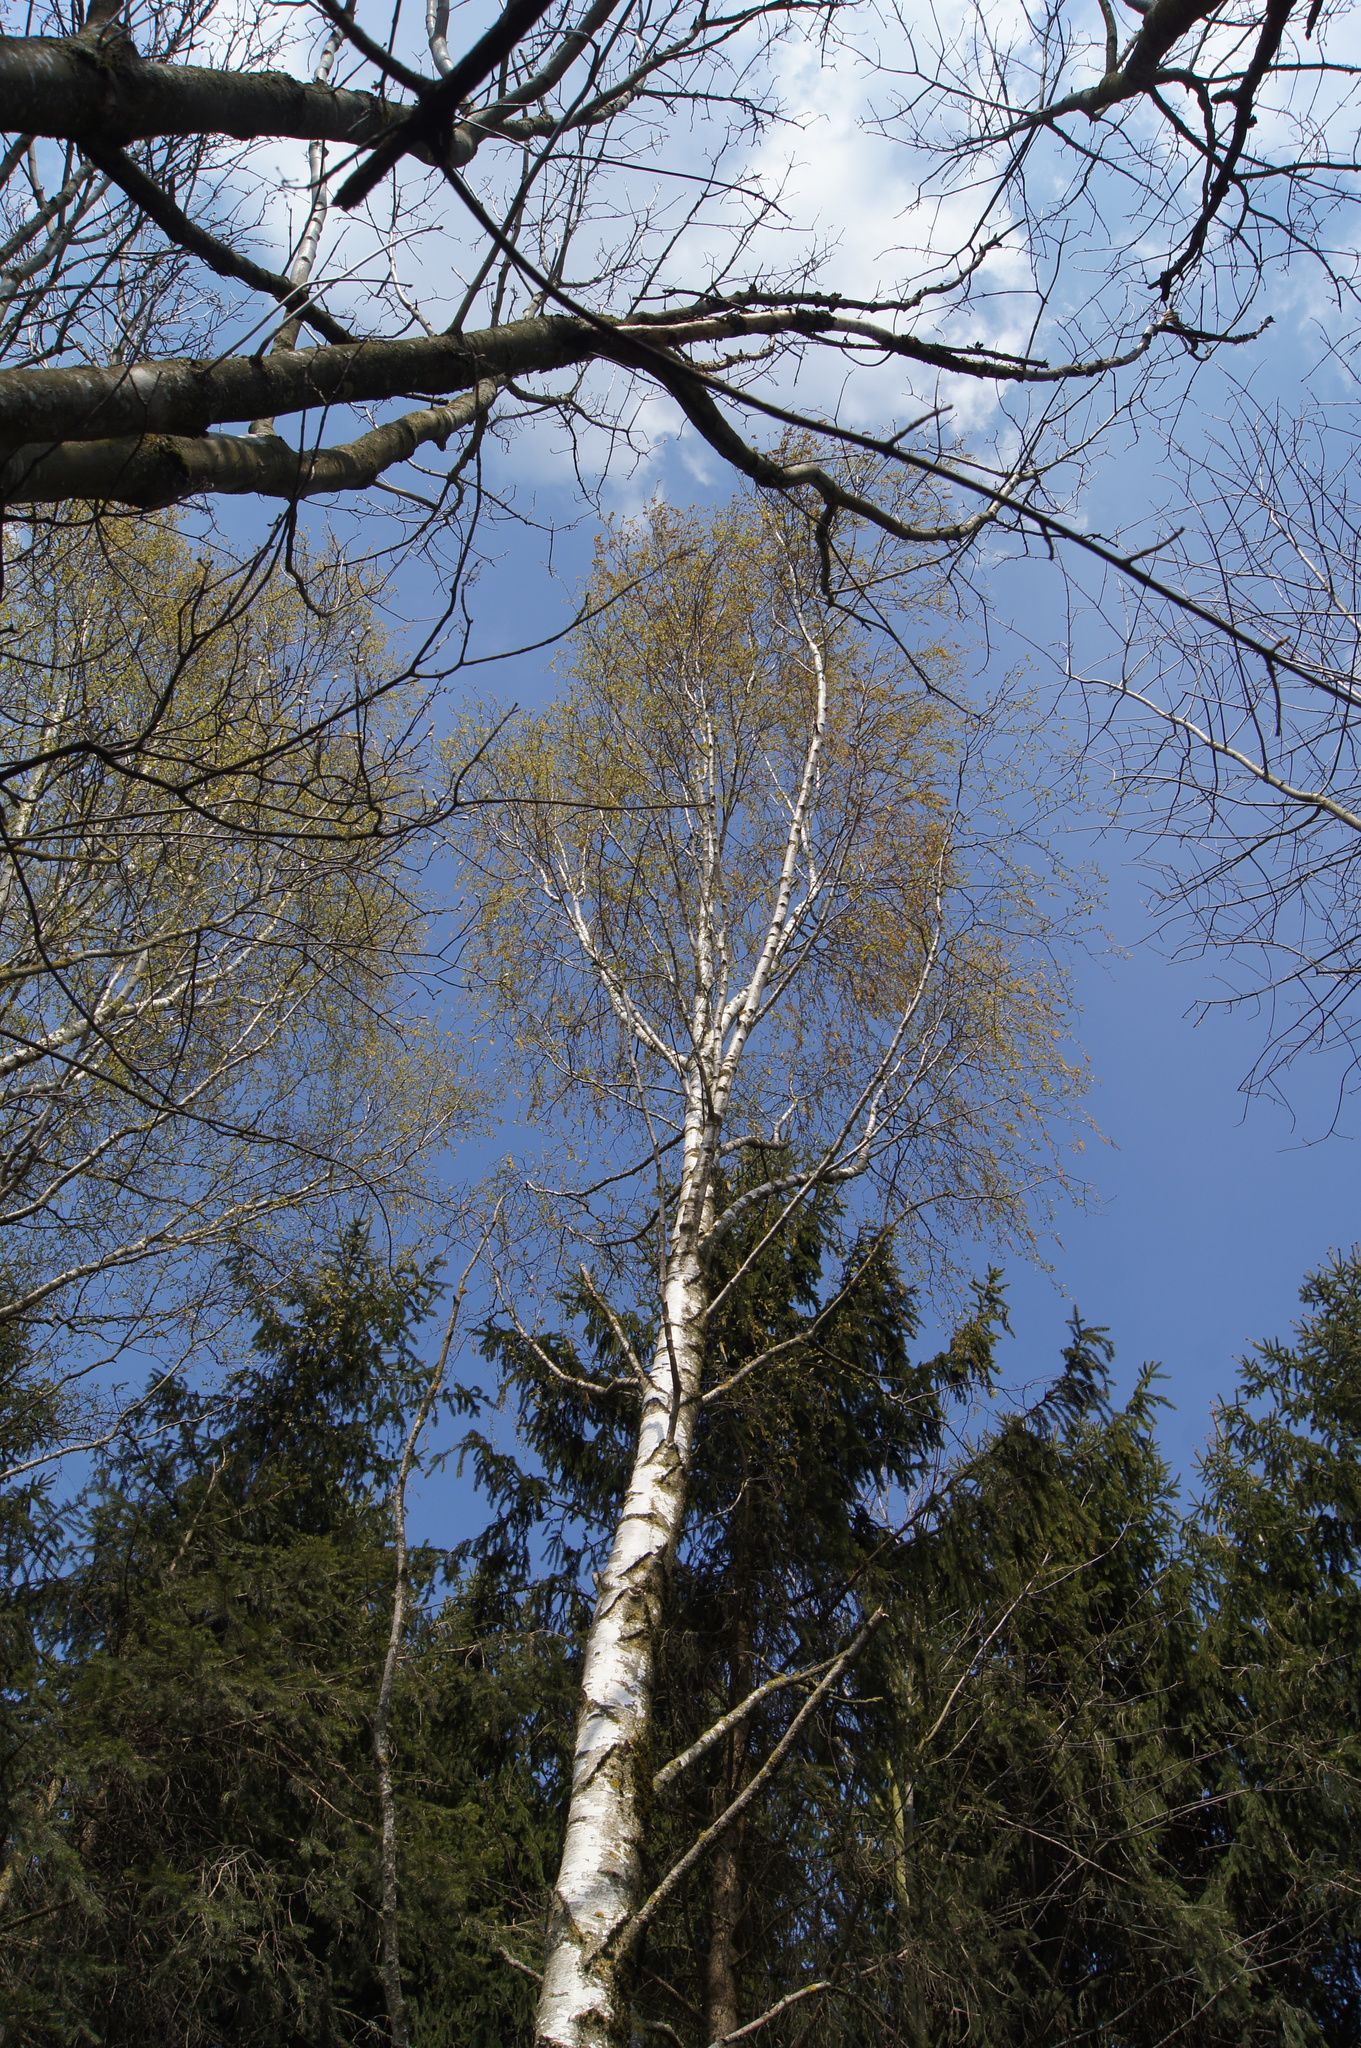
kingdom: Plantae
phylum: Tracheophyta
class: Magnoliopsida
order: Fagales
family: Betulaceae
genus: Betula
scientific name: Betula pendula
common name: Silver birch
